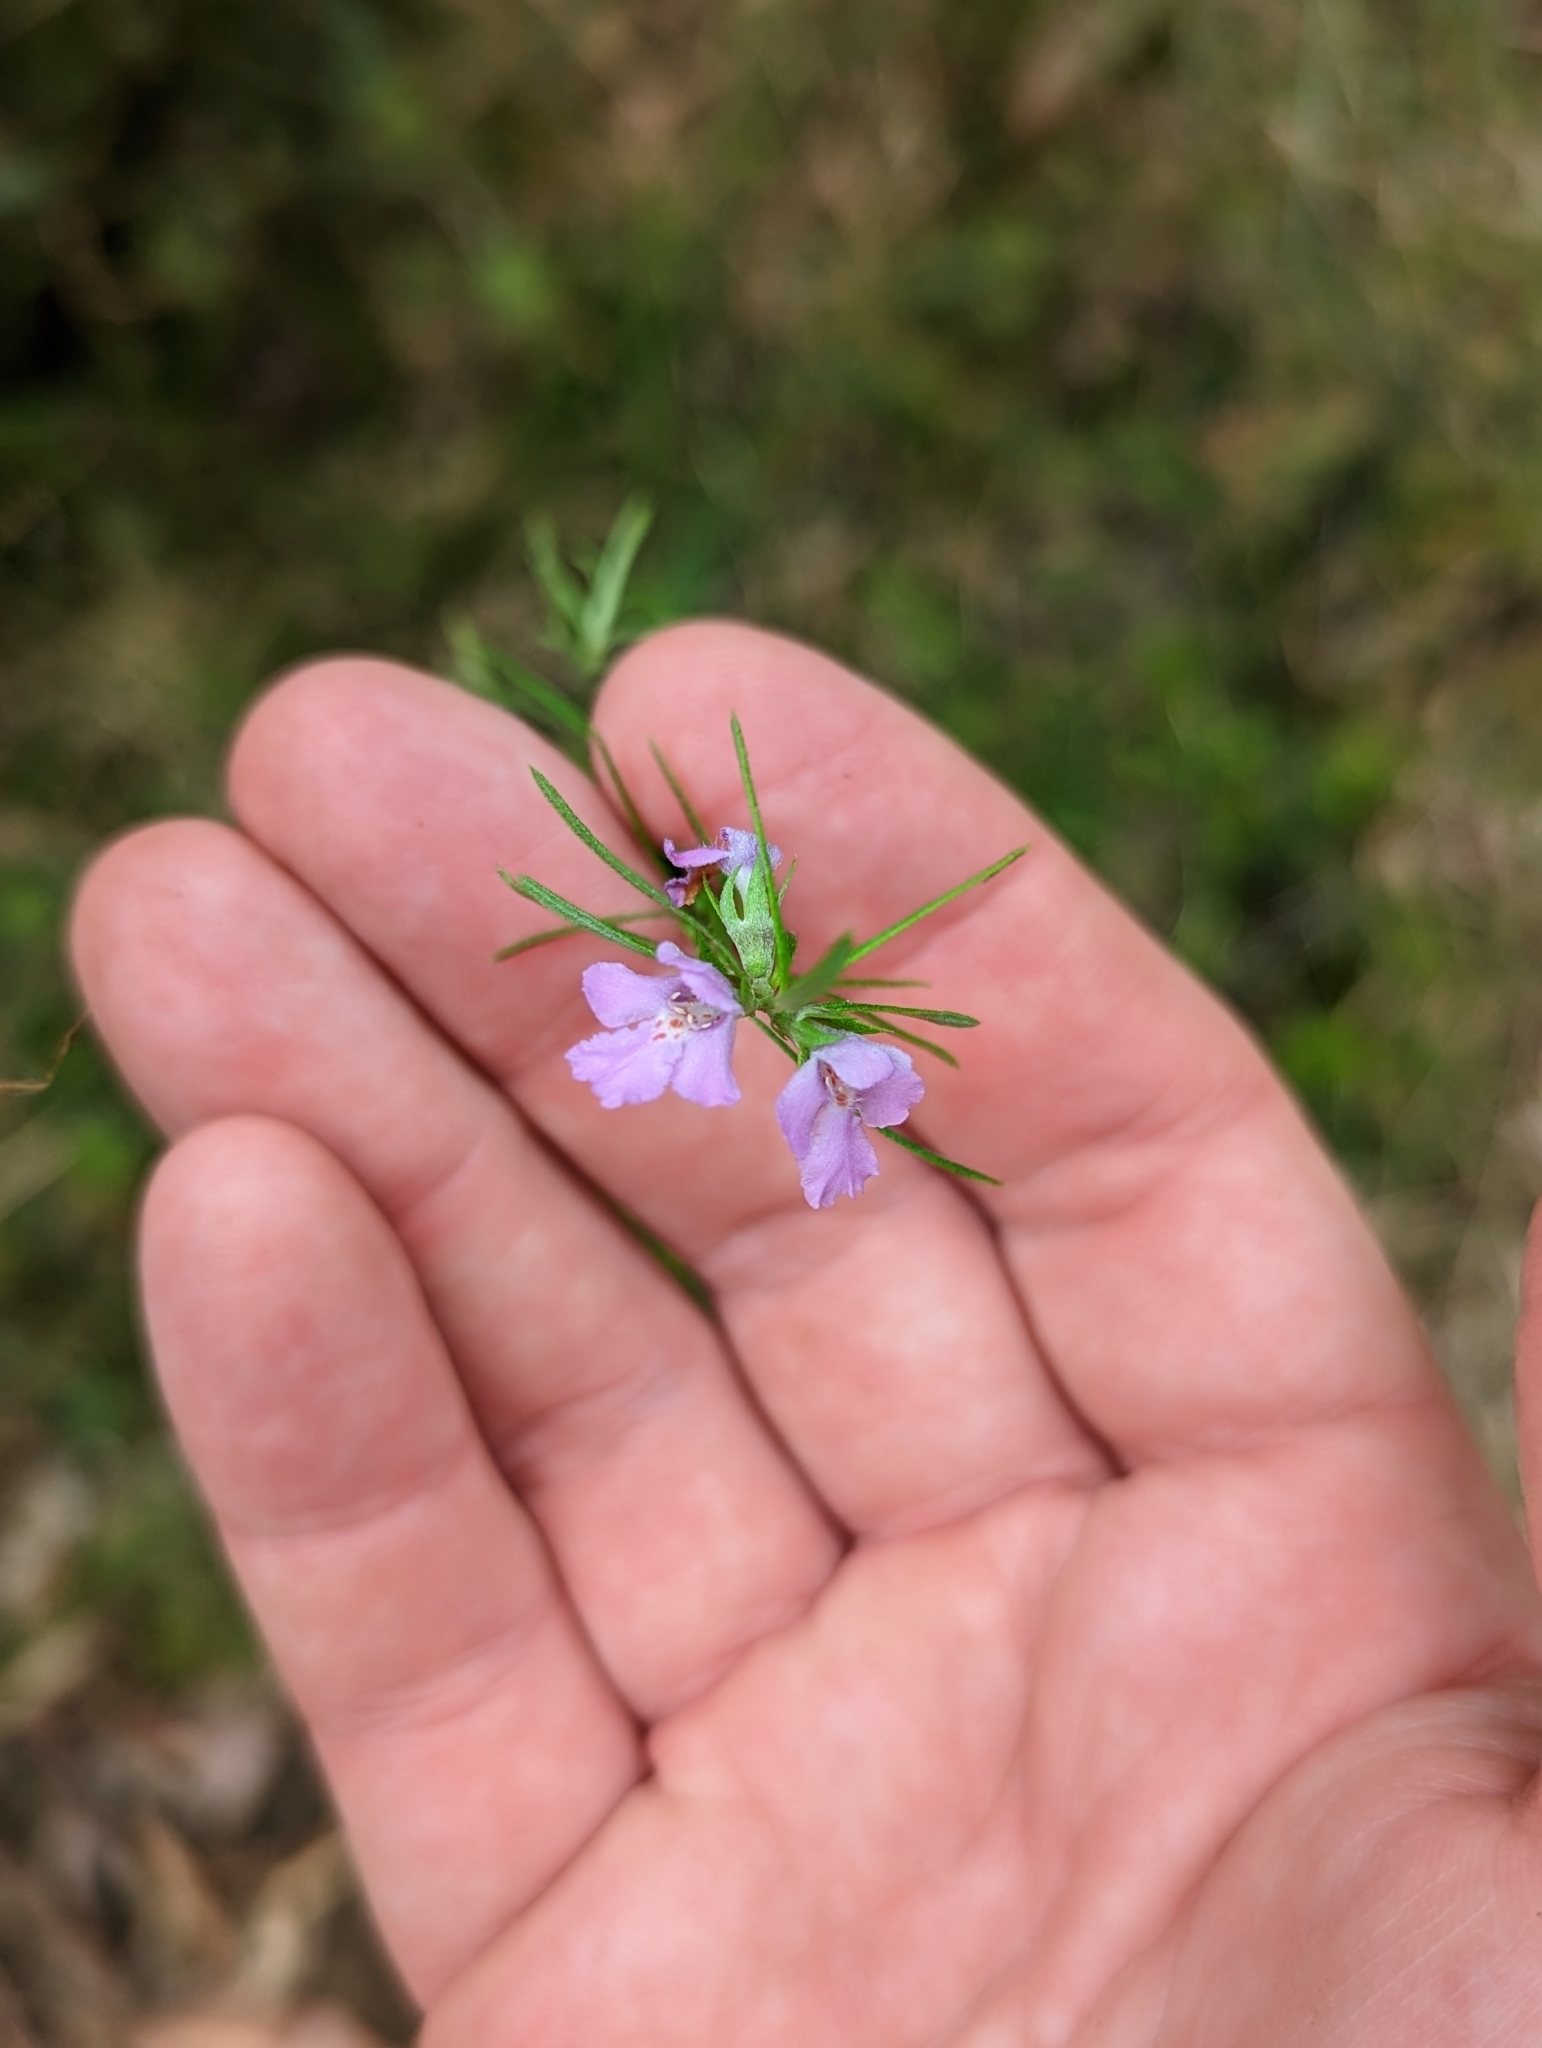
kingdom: Plantae
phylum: Tracheophyta
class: Magnoliopsida
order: Lamiales
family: Lamiaceae
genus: Westringia
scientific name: Westringia eremicola
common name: Slender western-rosemary
